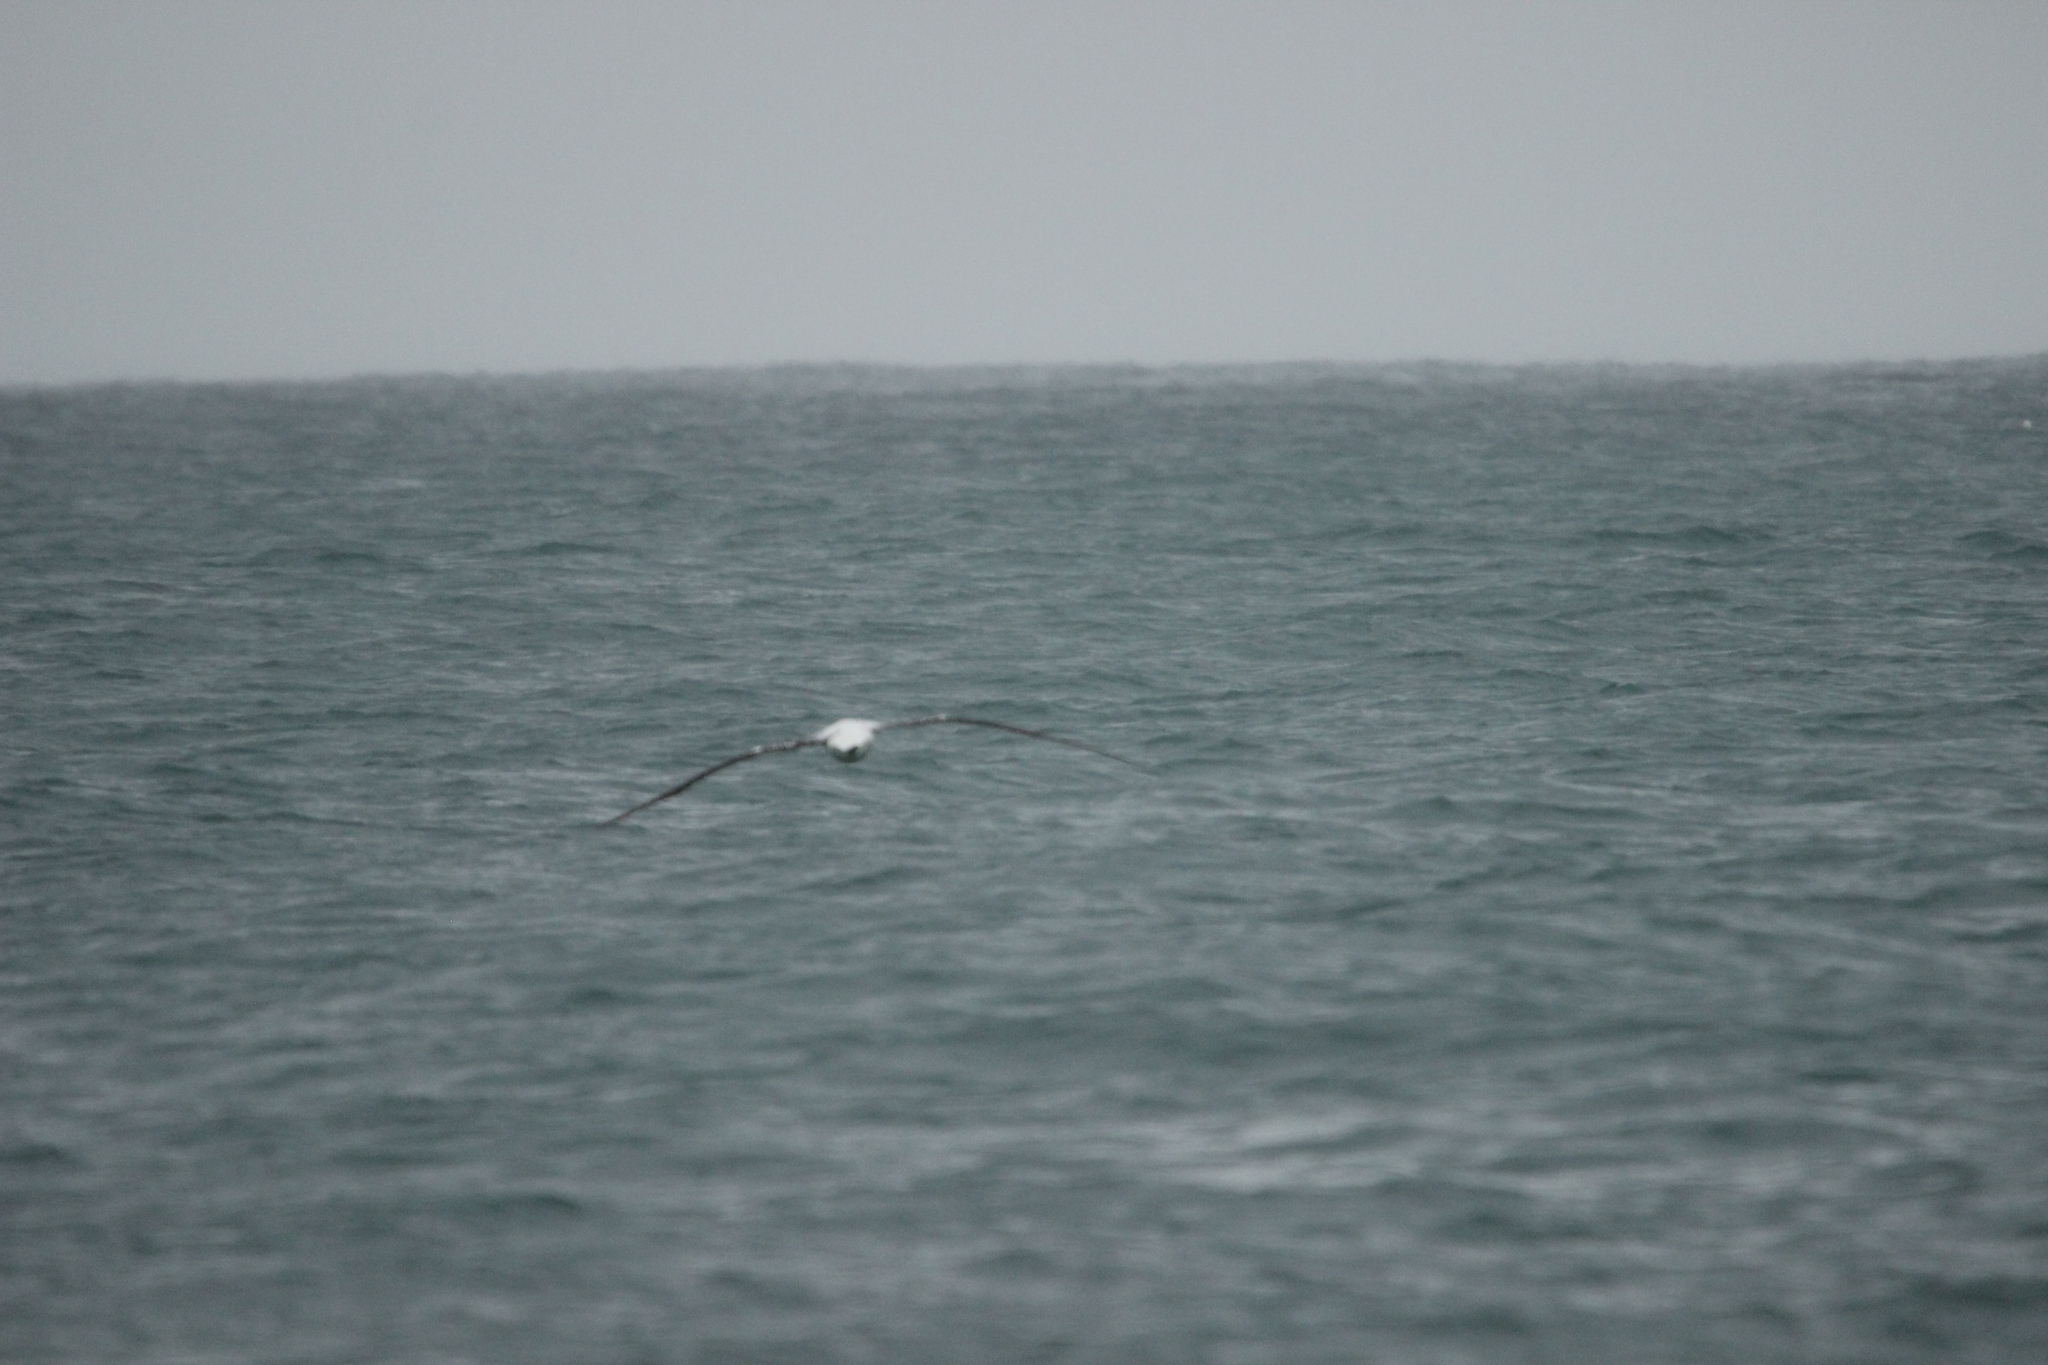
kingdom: Animalia
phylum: Chordata
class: Aves
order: Procellariiformes
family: Diomedeidae
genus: Diomedea
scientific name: Diomedea epomophora
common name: Southern royal albatross
